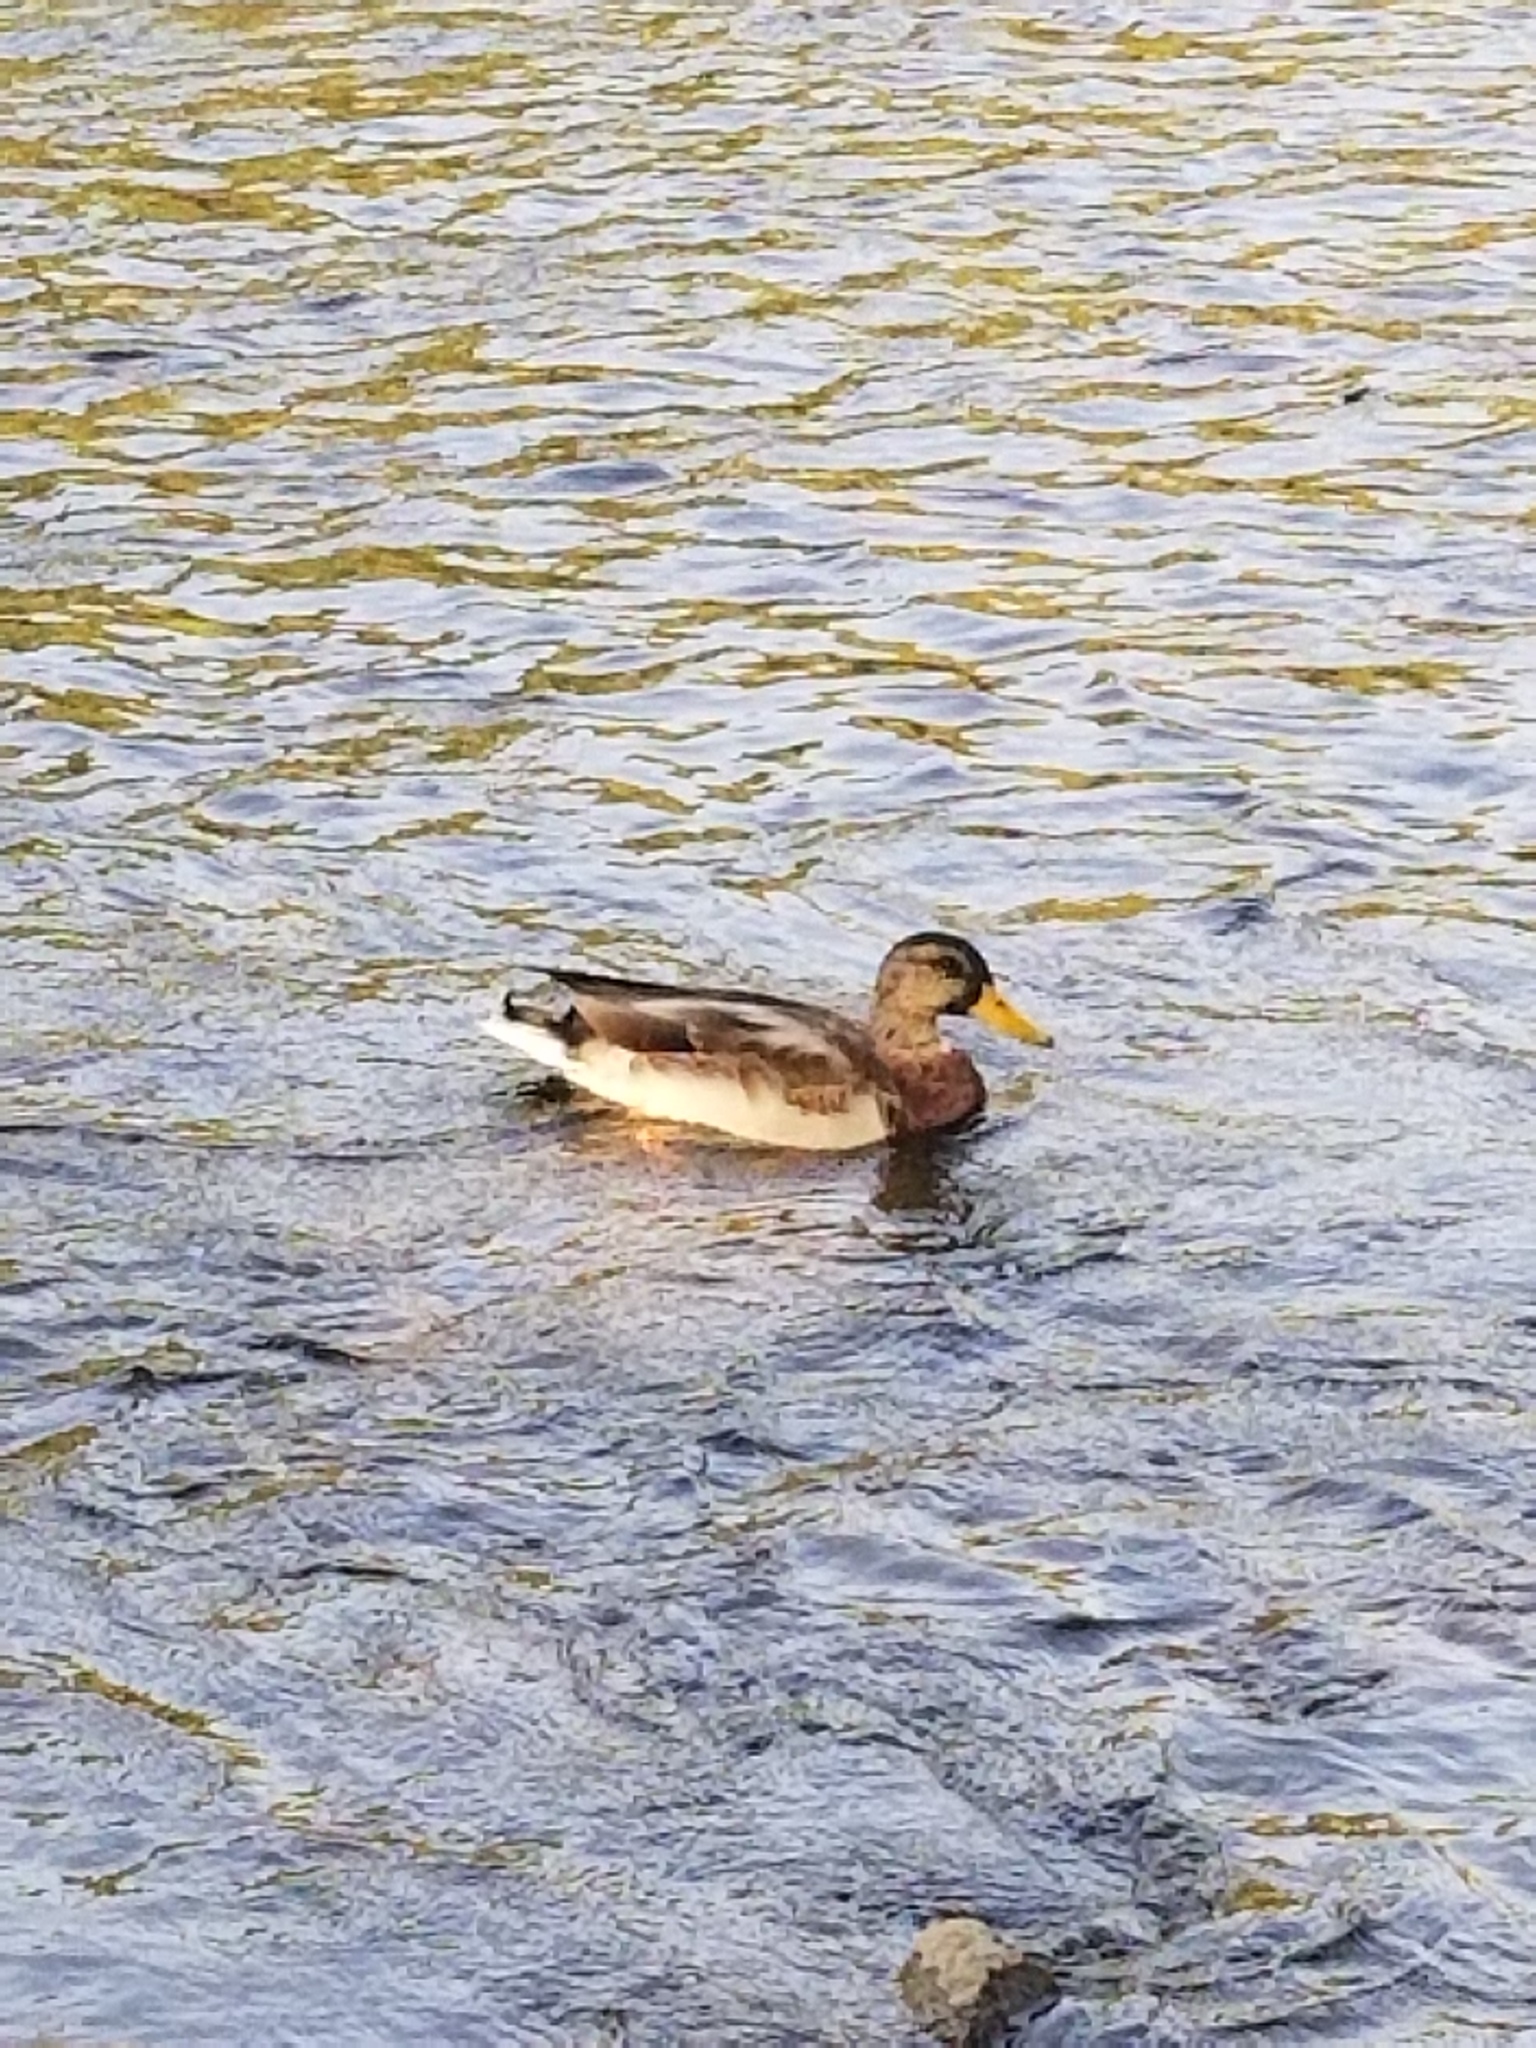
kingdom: Animalia
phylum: Chordata
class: Aves
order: Anseriformes
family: Anatidae
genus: Anas
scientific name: Anas platyrhynchos
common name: Mallard
